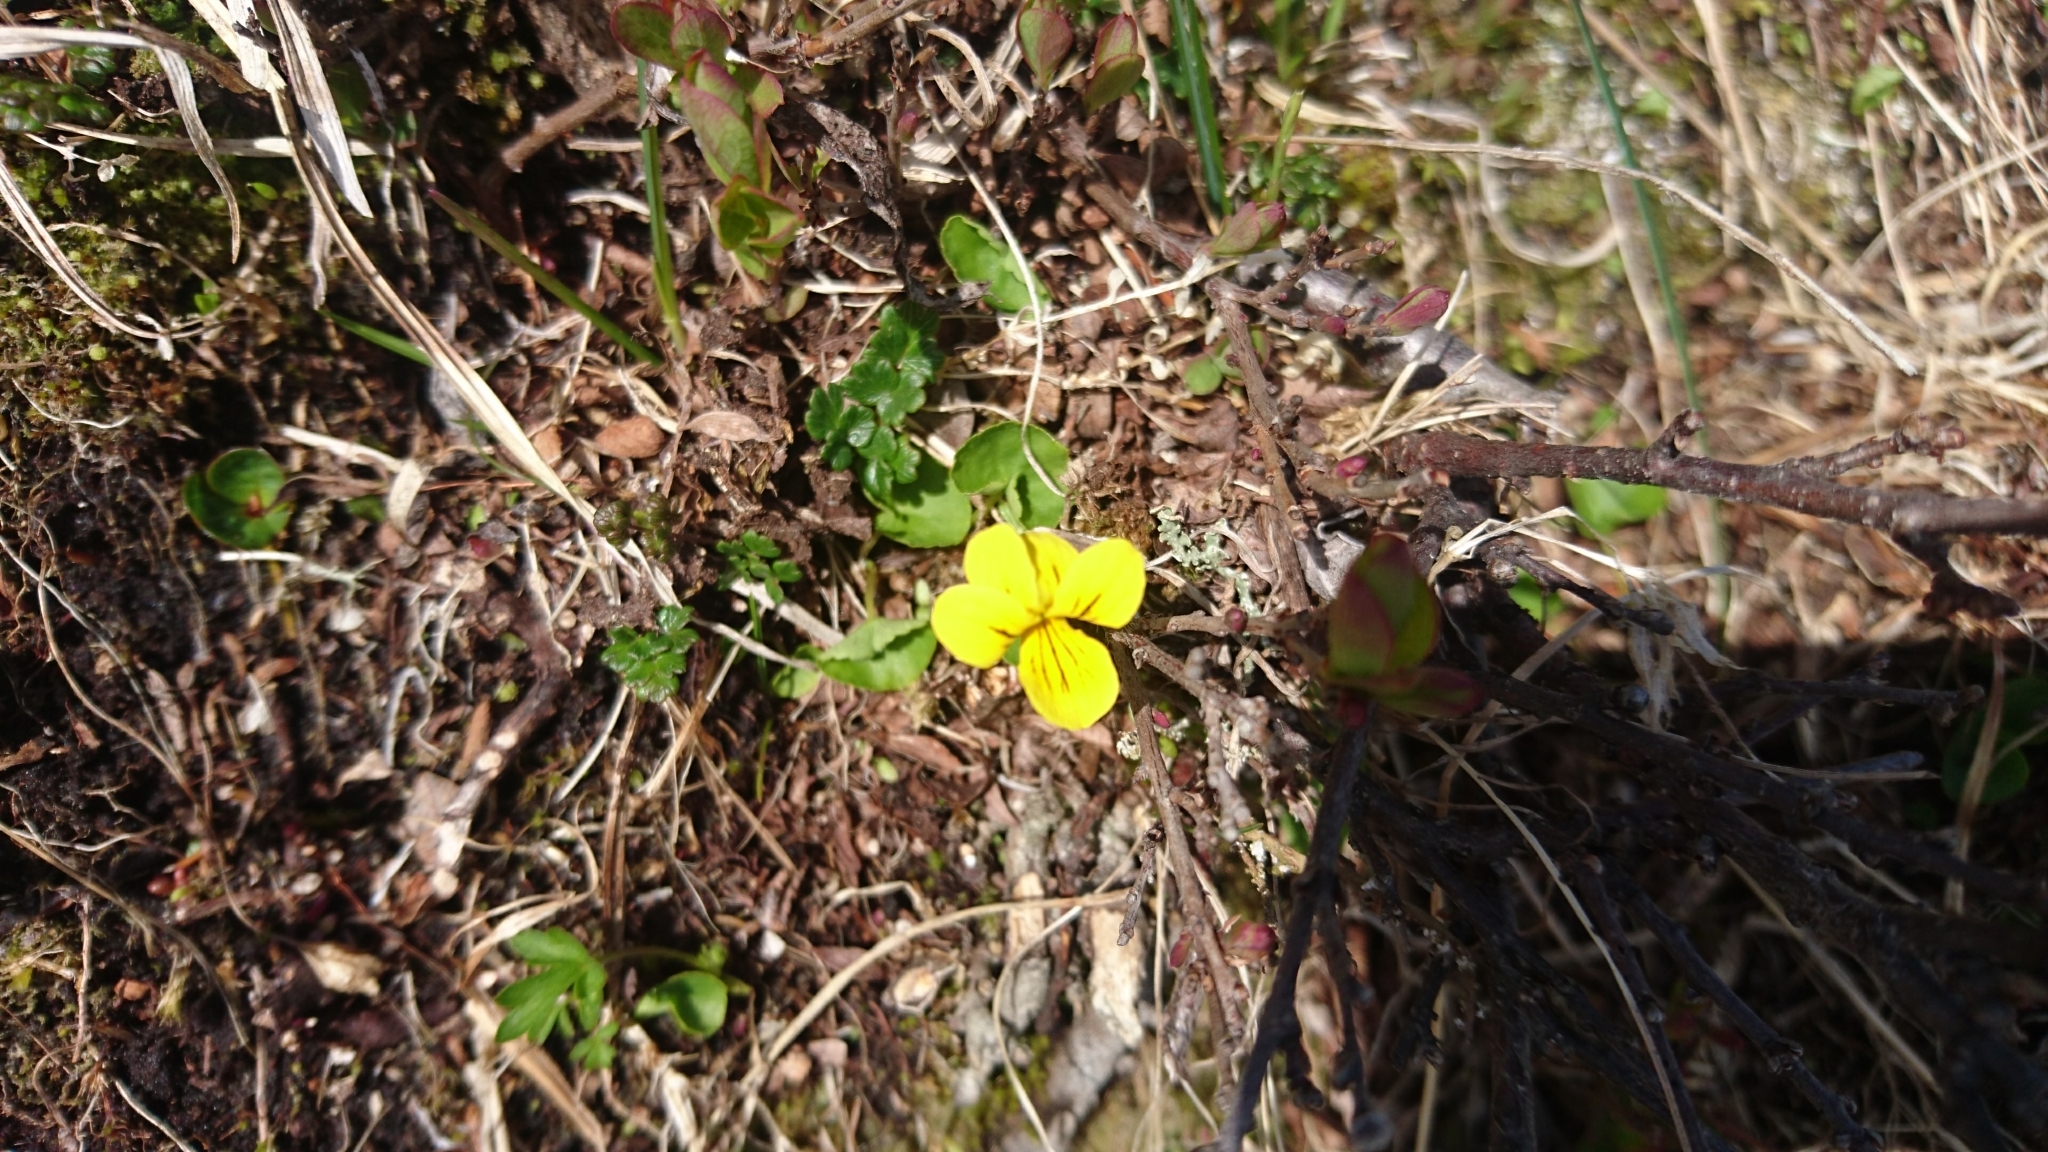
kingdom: Plantae
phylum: Tracheophyta
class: Magnoliopsida
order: Malpighiales
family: Violaceae
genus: Viola
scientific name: Viola biflora
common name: Alpine yellow violet
